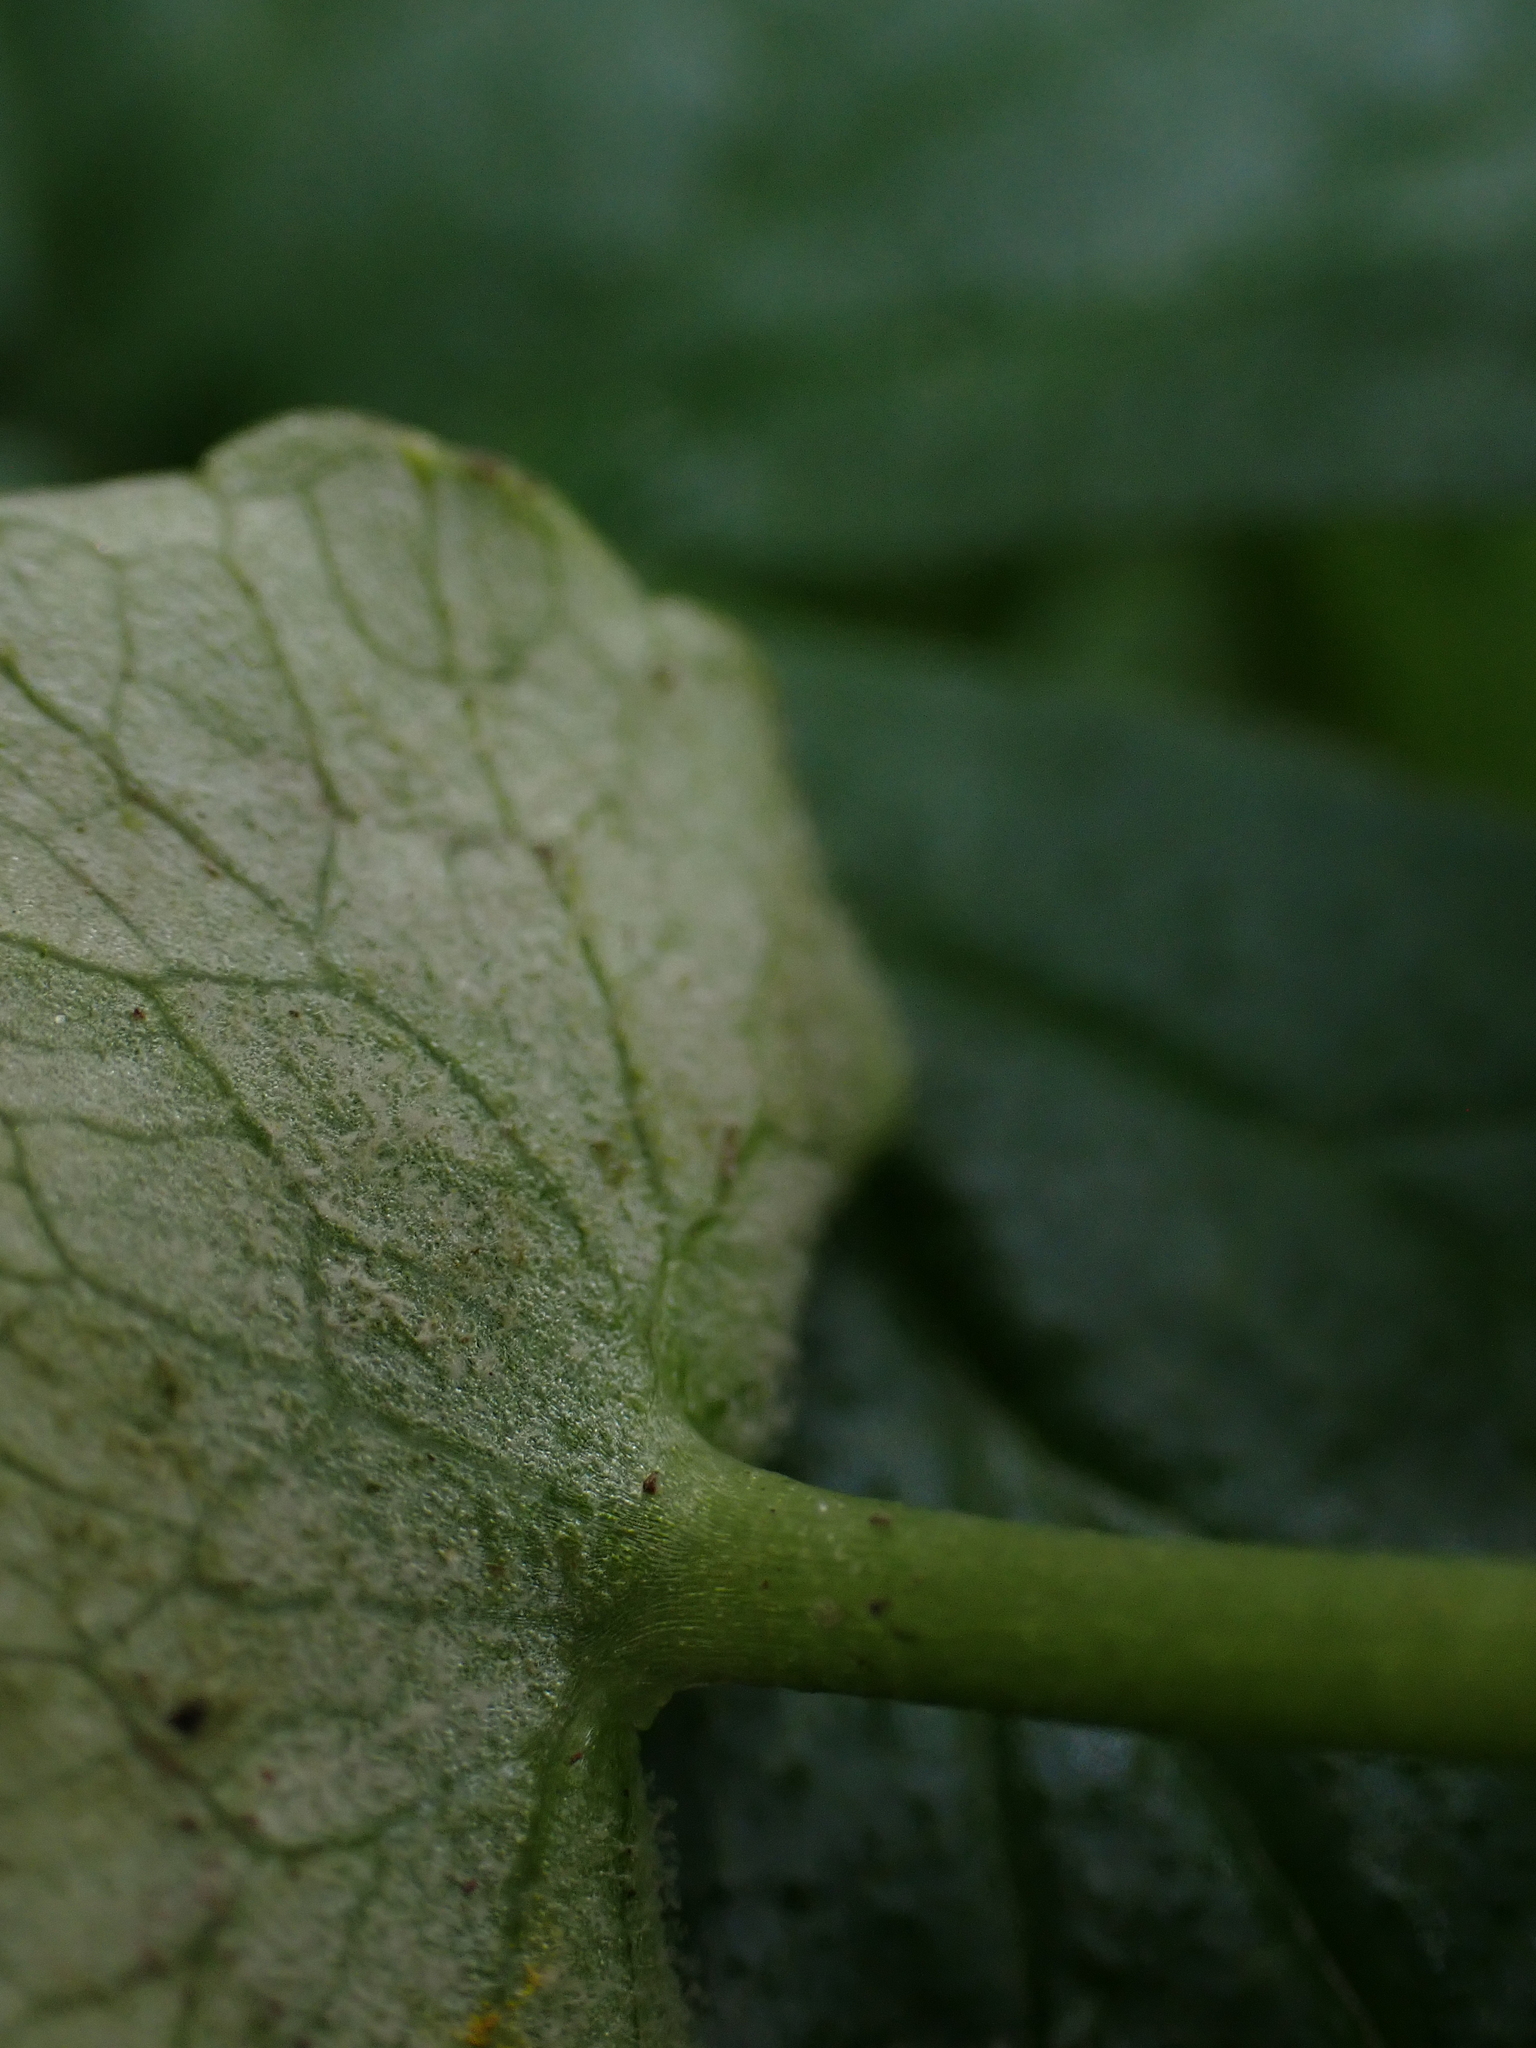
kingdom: Chromista
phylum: Oomycota
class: Peronosporea
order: Peronosporales
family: Peronosporaceae
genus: Peronospora
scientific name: Peronospora ficariae
